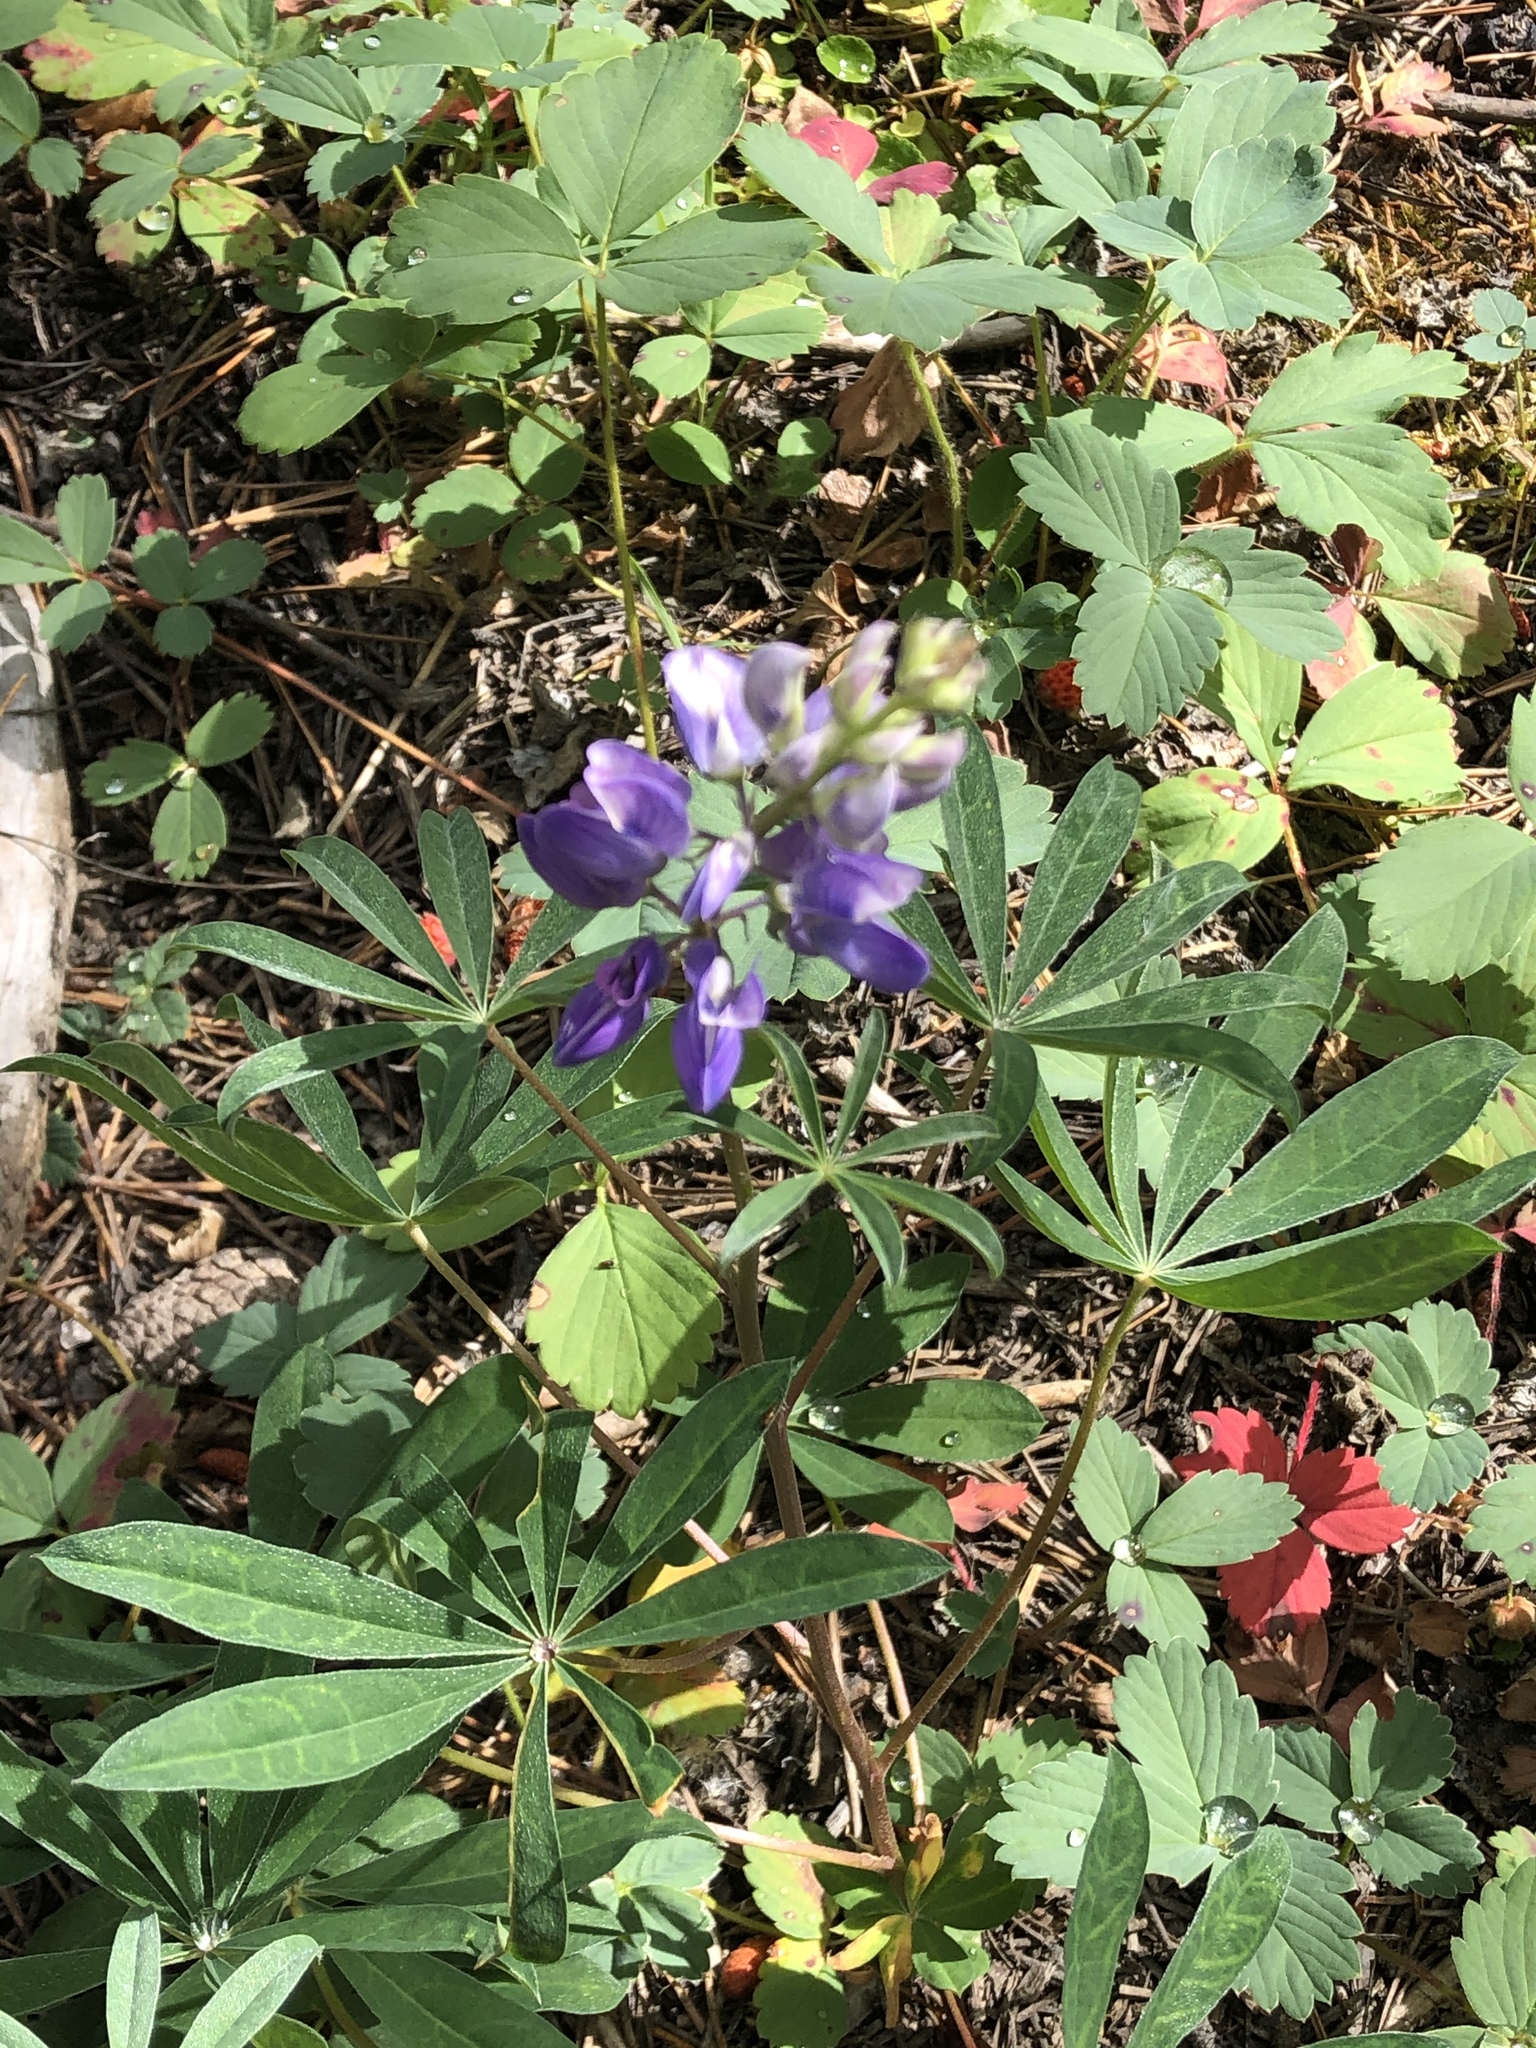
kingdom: Plantae
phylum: Tracheophyta
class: Magnoliopsida
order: Fabales
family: Fabaceae
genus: Lupinus
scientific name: Lupinus latifolius
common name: Broad-leaved lupine
